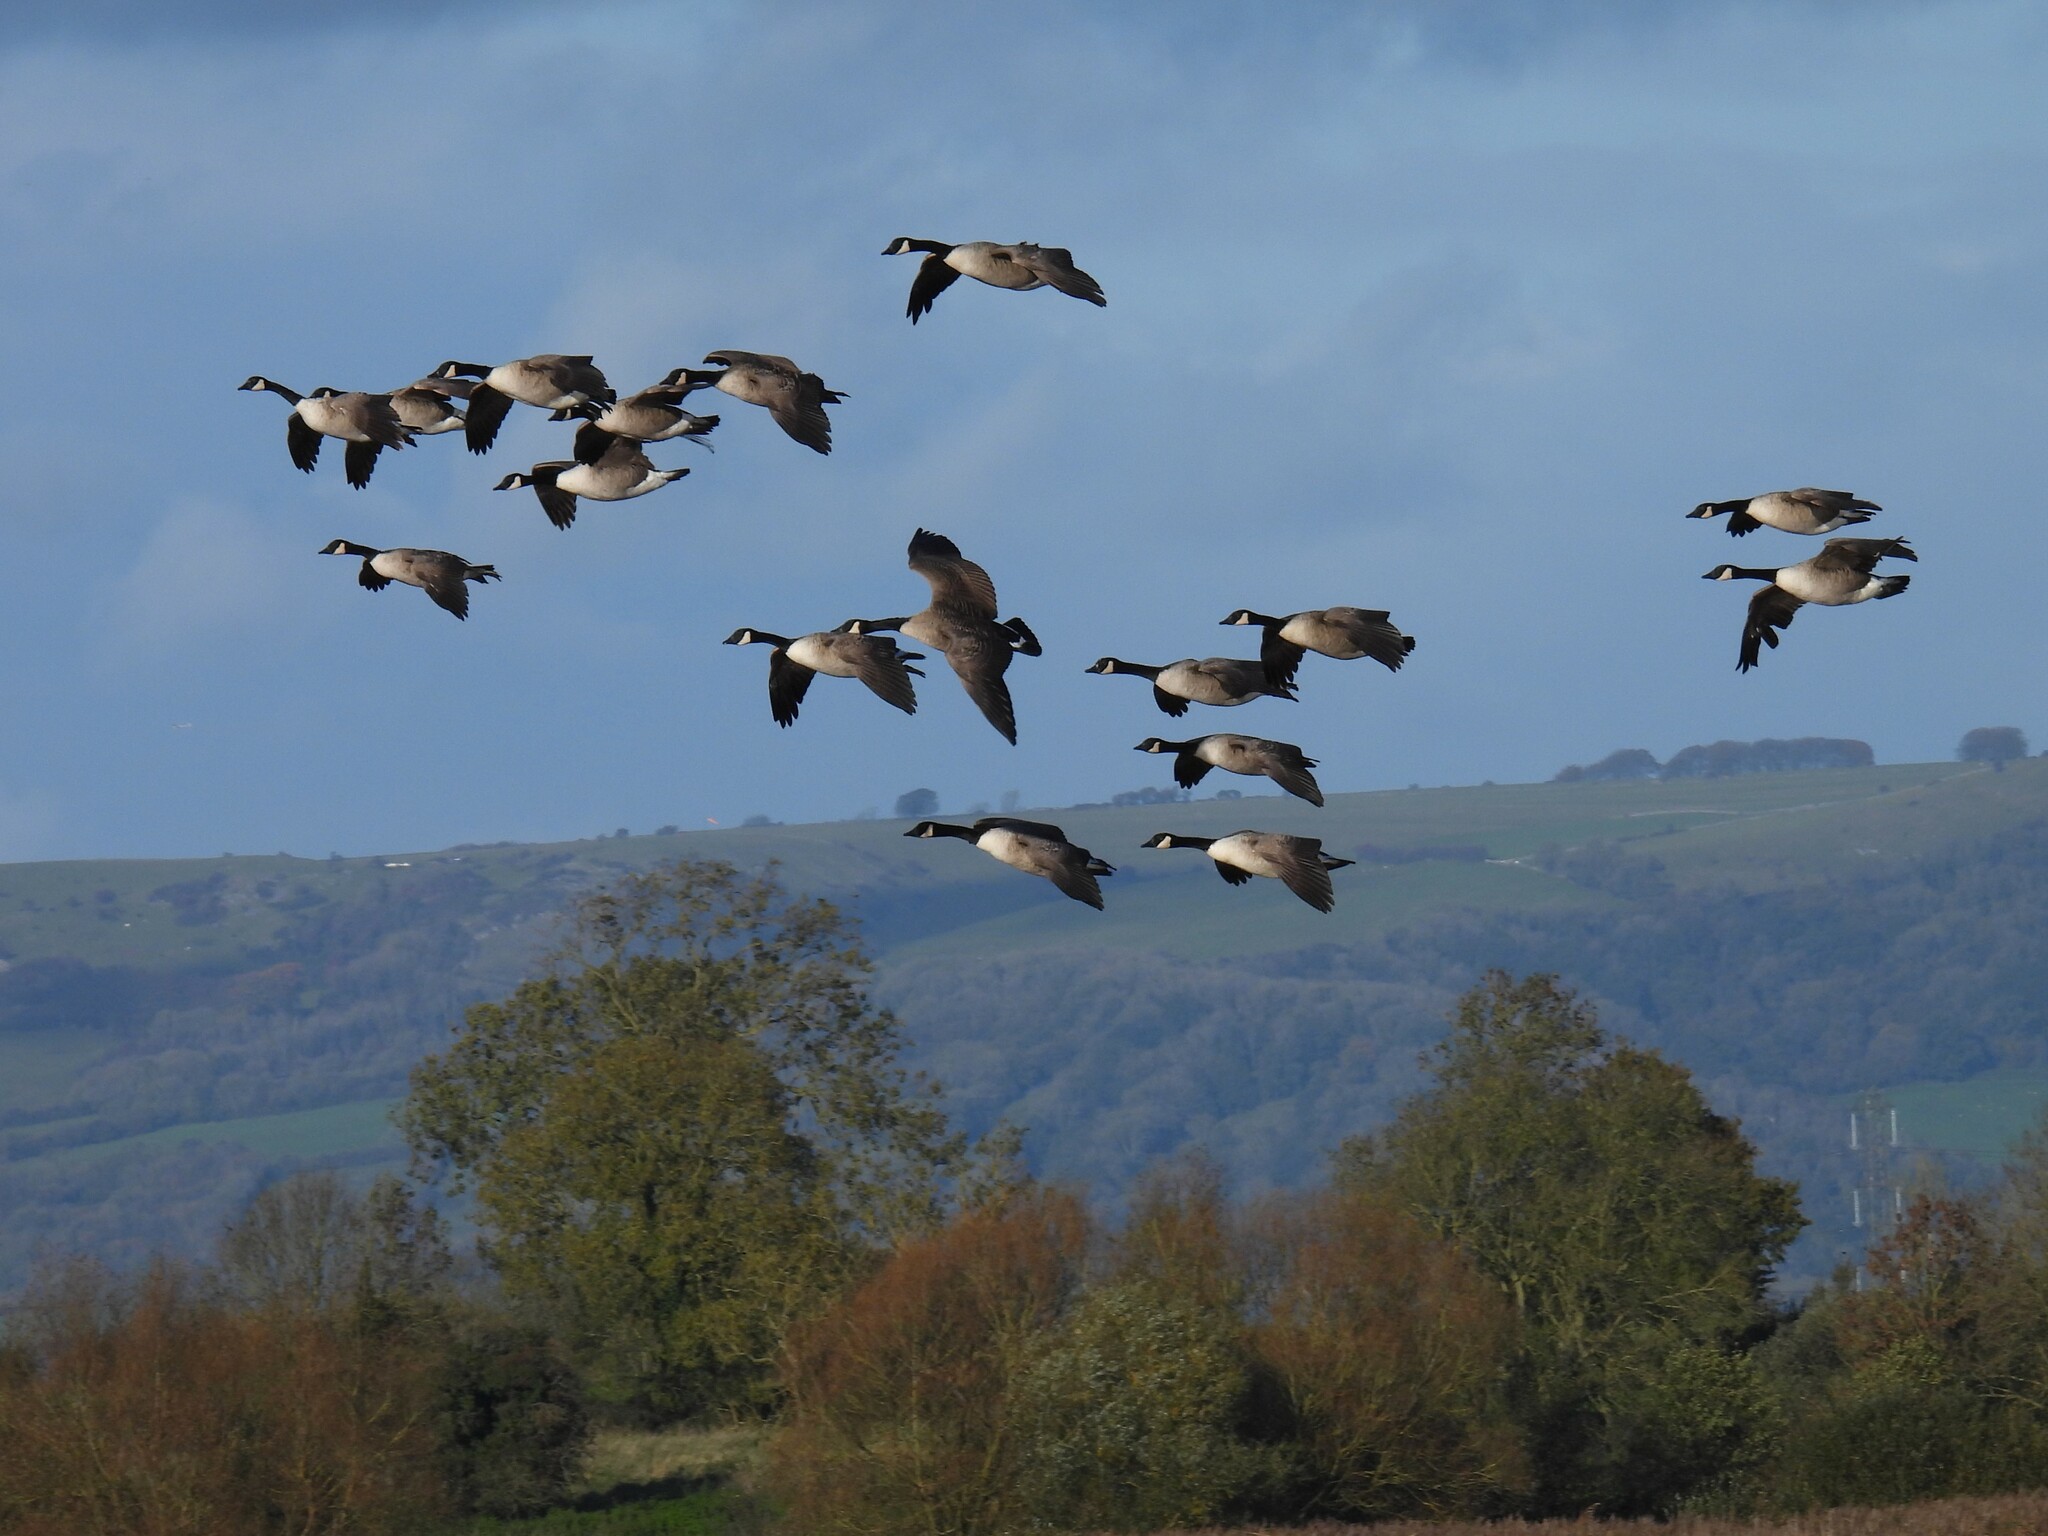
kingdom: Animalia
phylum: Chordata
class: Aves
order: Anseriformes
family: Anatidae
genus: Branta
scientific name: Branta canadensis
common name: Canada goose
